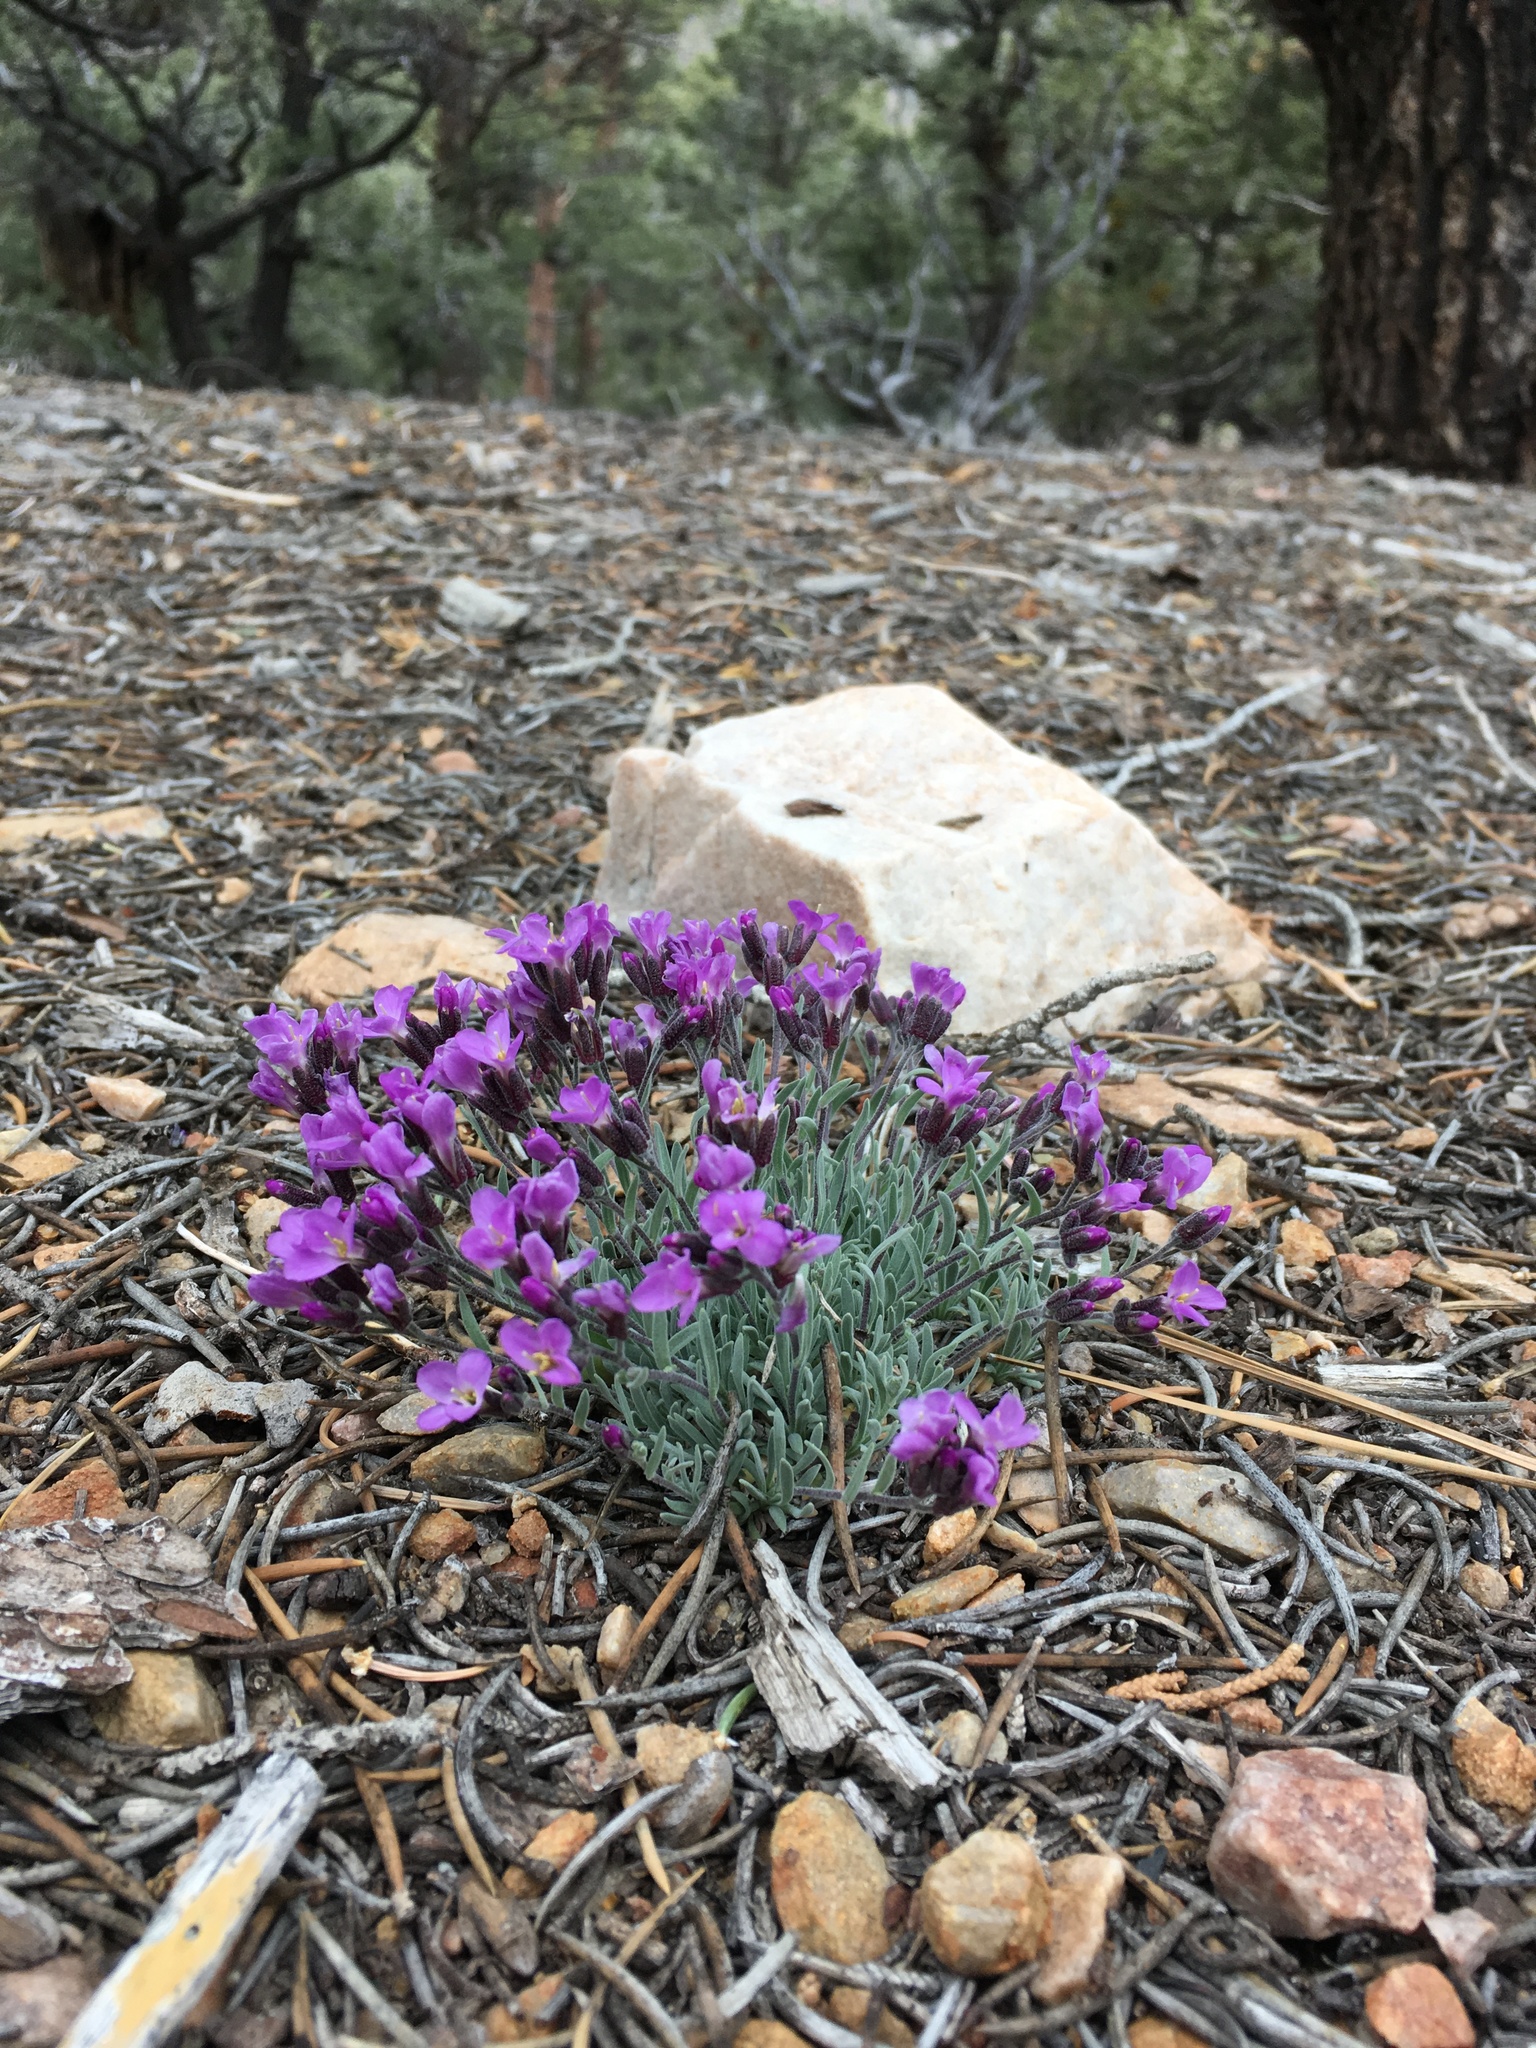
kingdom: Plantae
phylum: Tracheophyta
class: Magnoliopsida
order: Brassicales
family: Brassicaceae
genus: Boechera
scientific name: Boechera parishii
